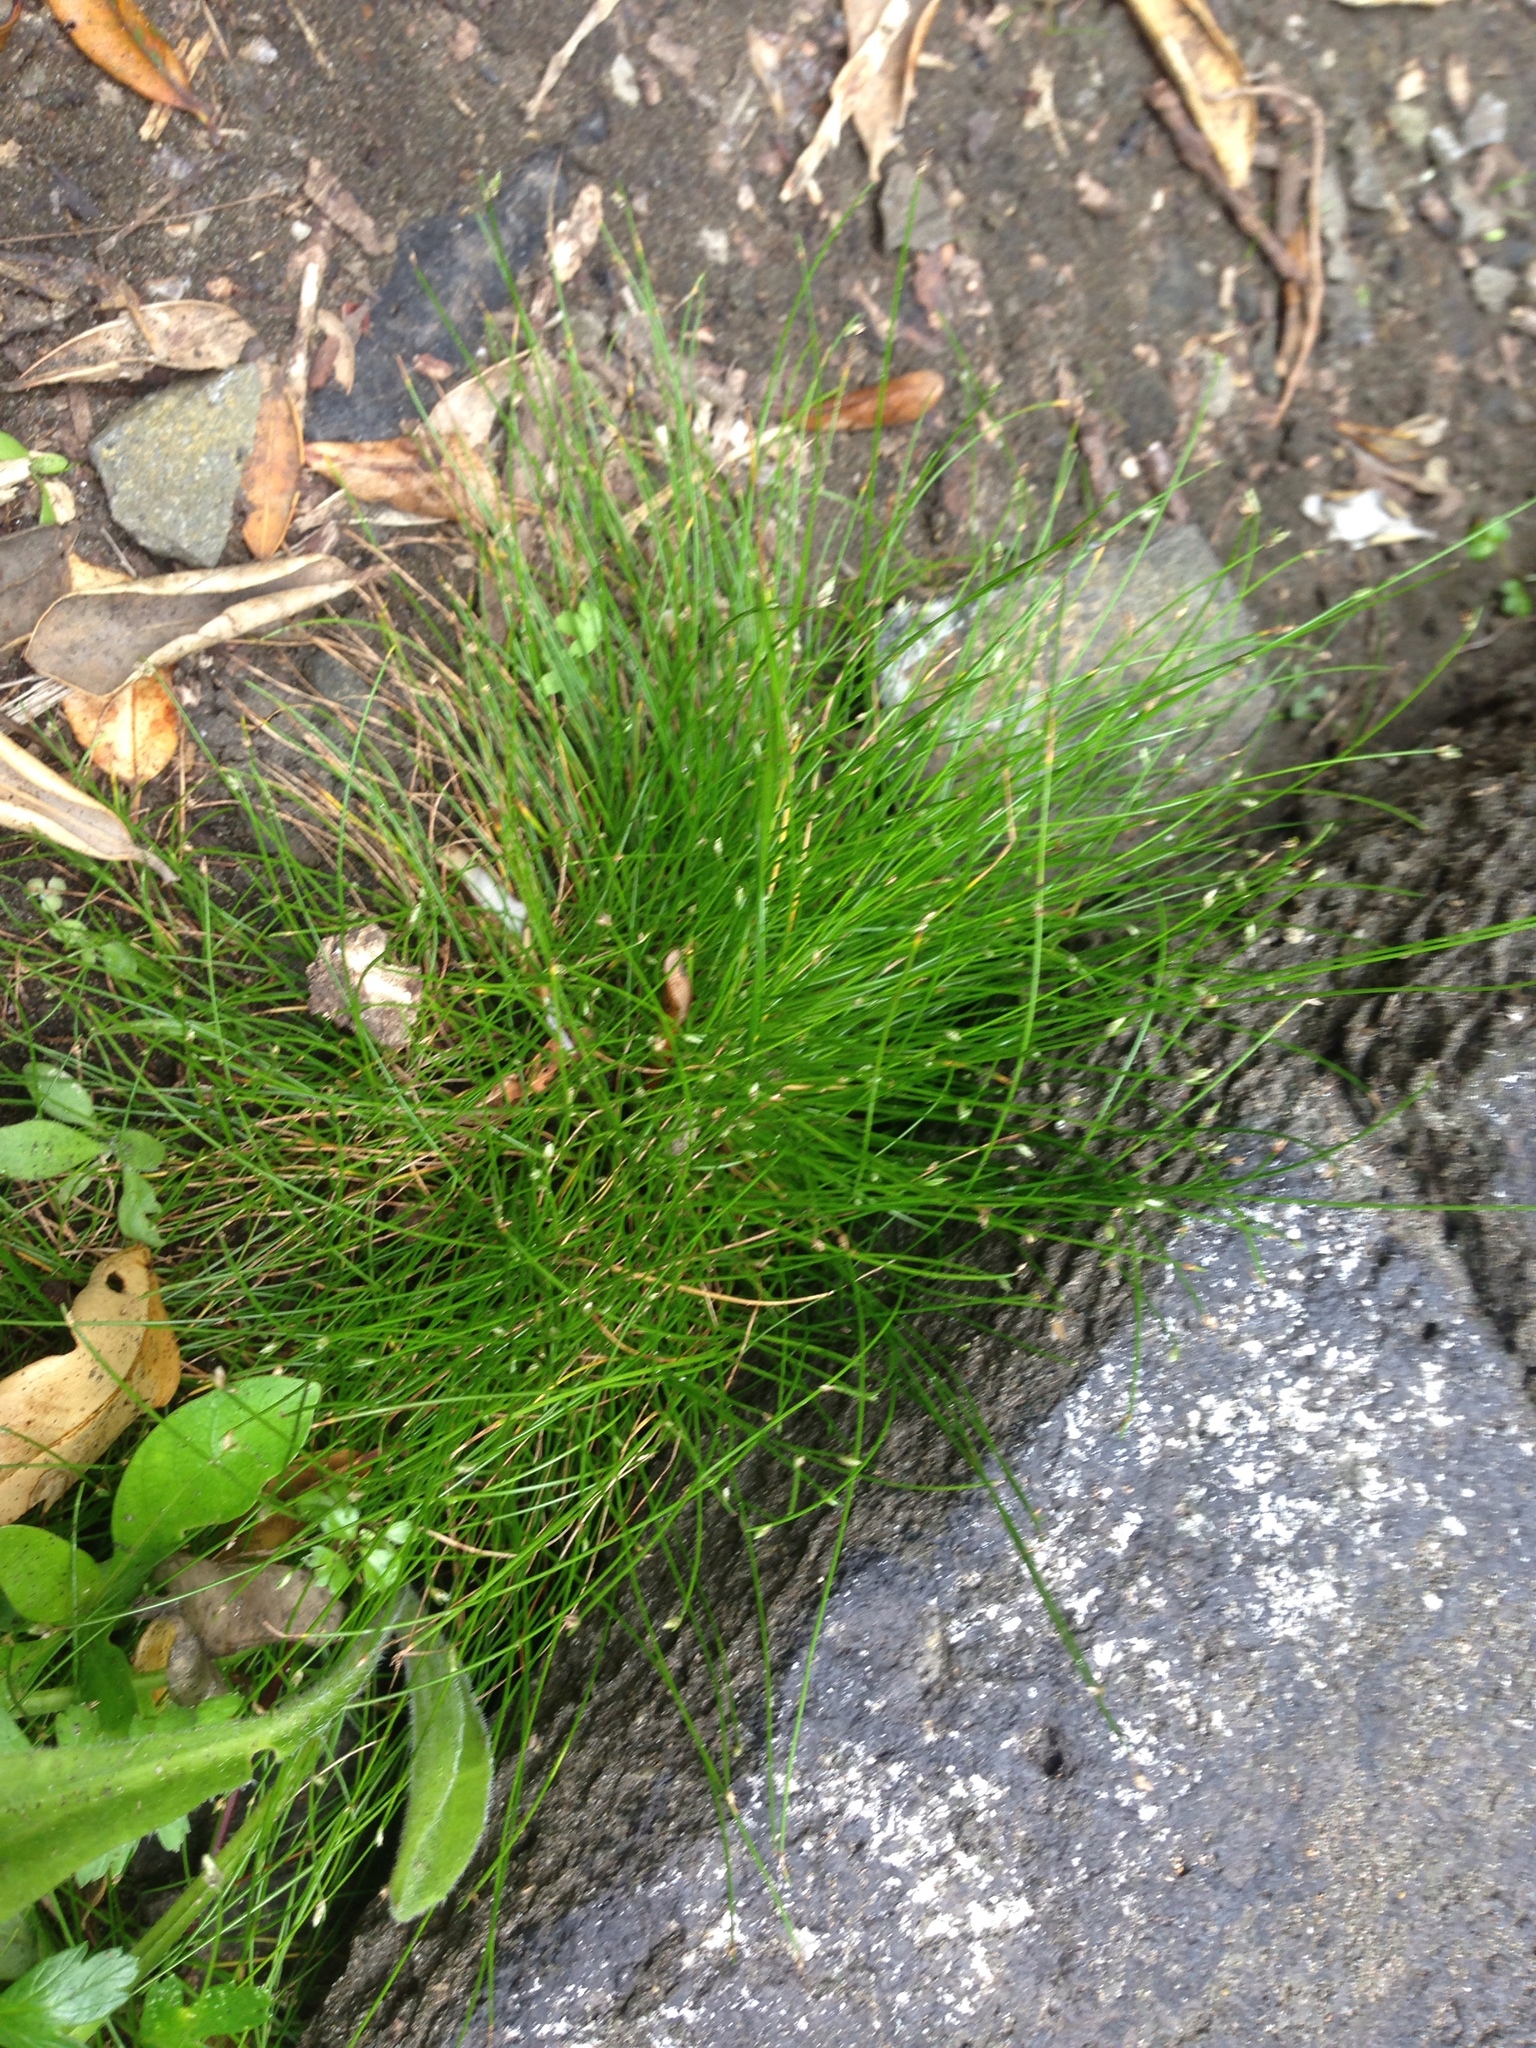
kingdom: Plantae
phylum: Tracheophyta
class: Liliopsida
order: Poales
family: Cyperaceae
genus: Isolepis
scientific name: Isolepis cernua
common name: Slender club-rush
